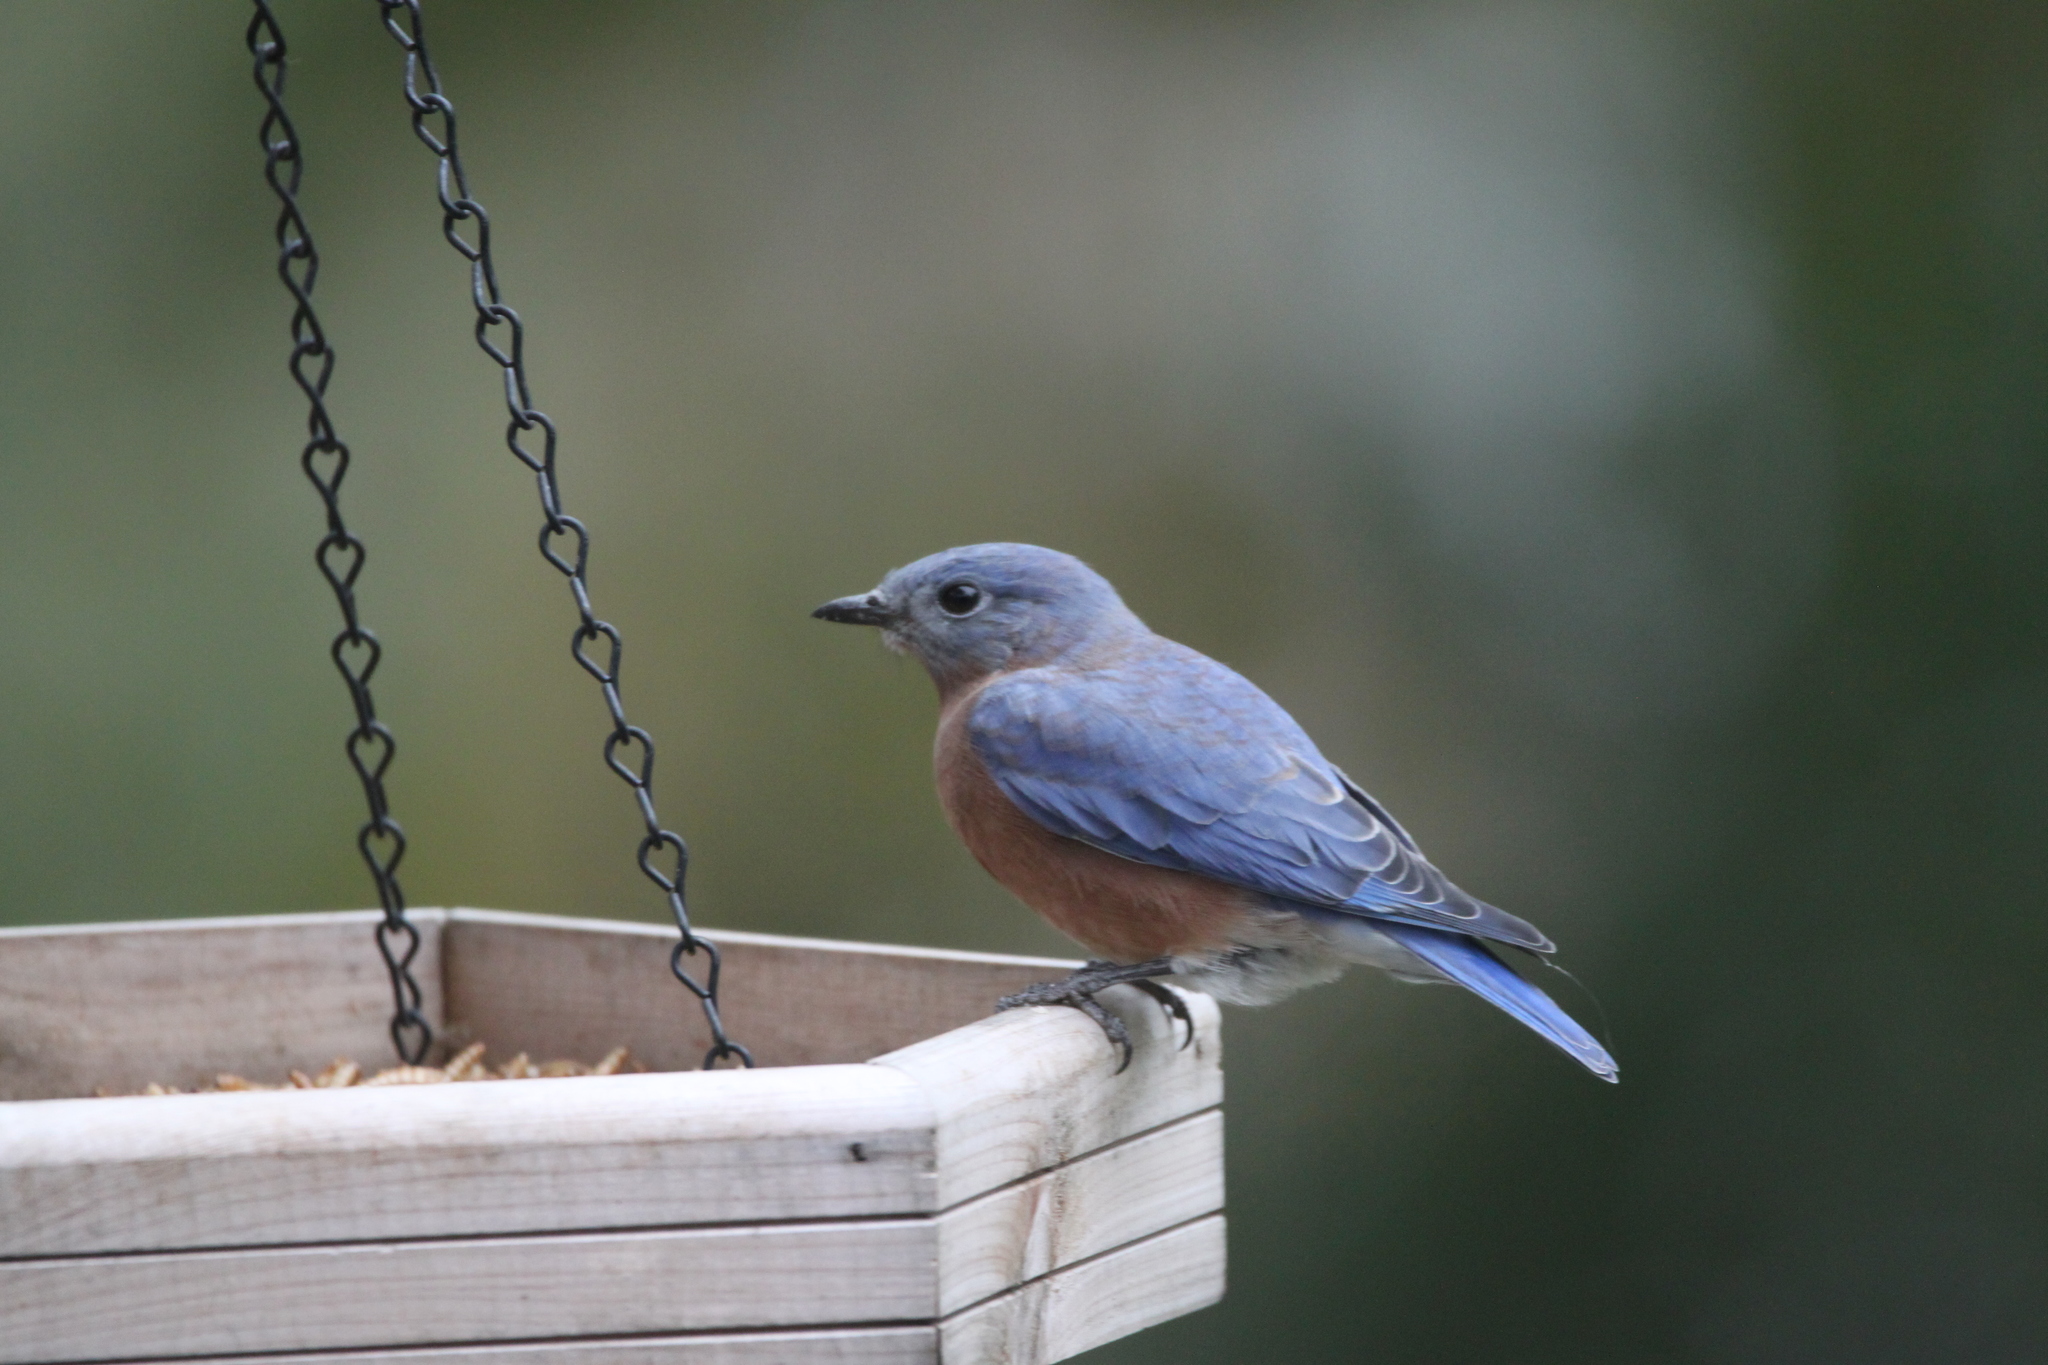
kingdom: Animalia
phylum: Chordata
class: Aves
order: Passeriformes
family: Turdidae
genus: Sialia
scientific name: Sialia sialis
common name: Eastern bluebird
